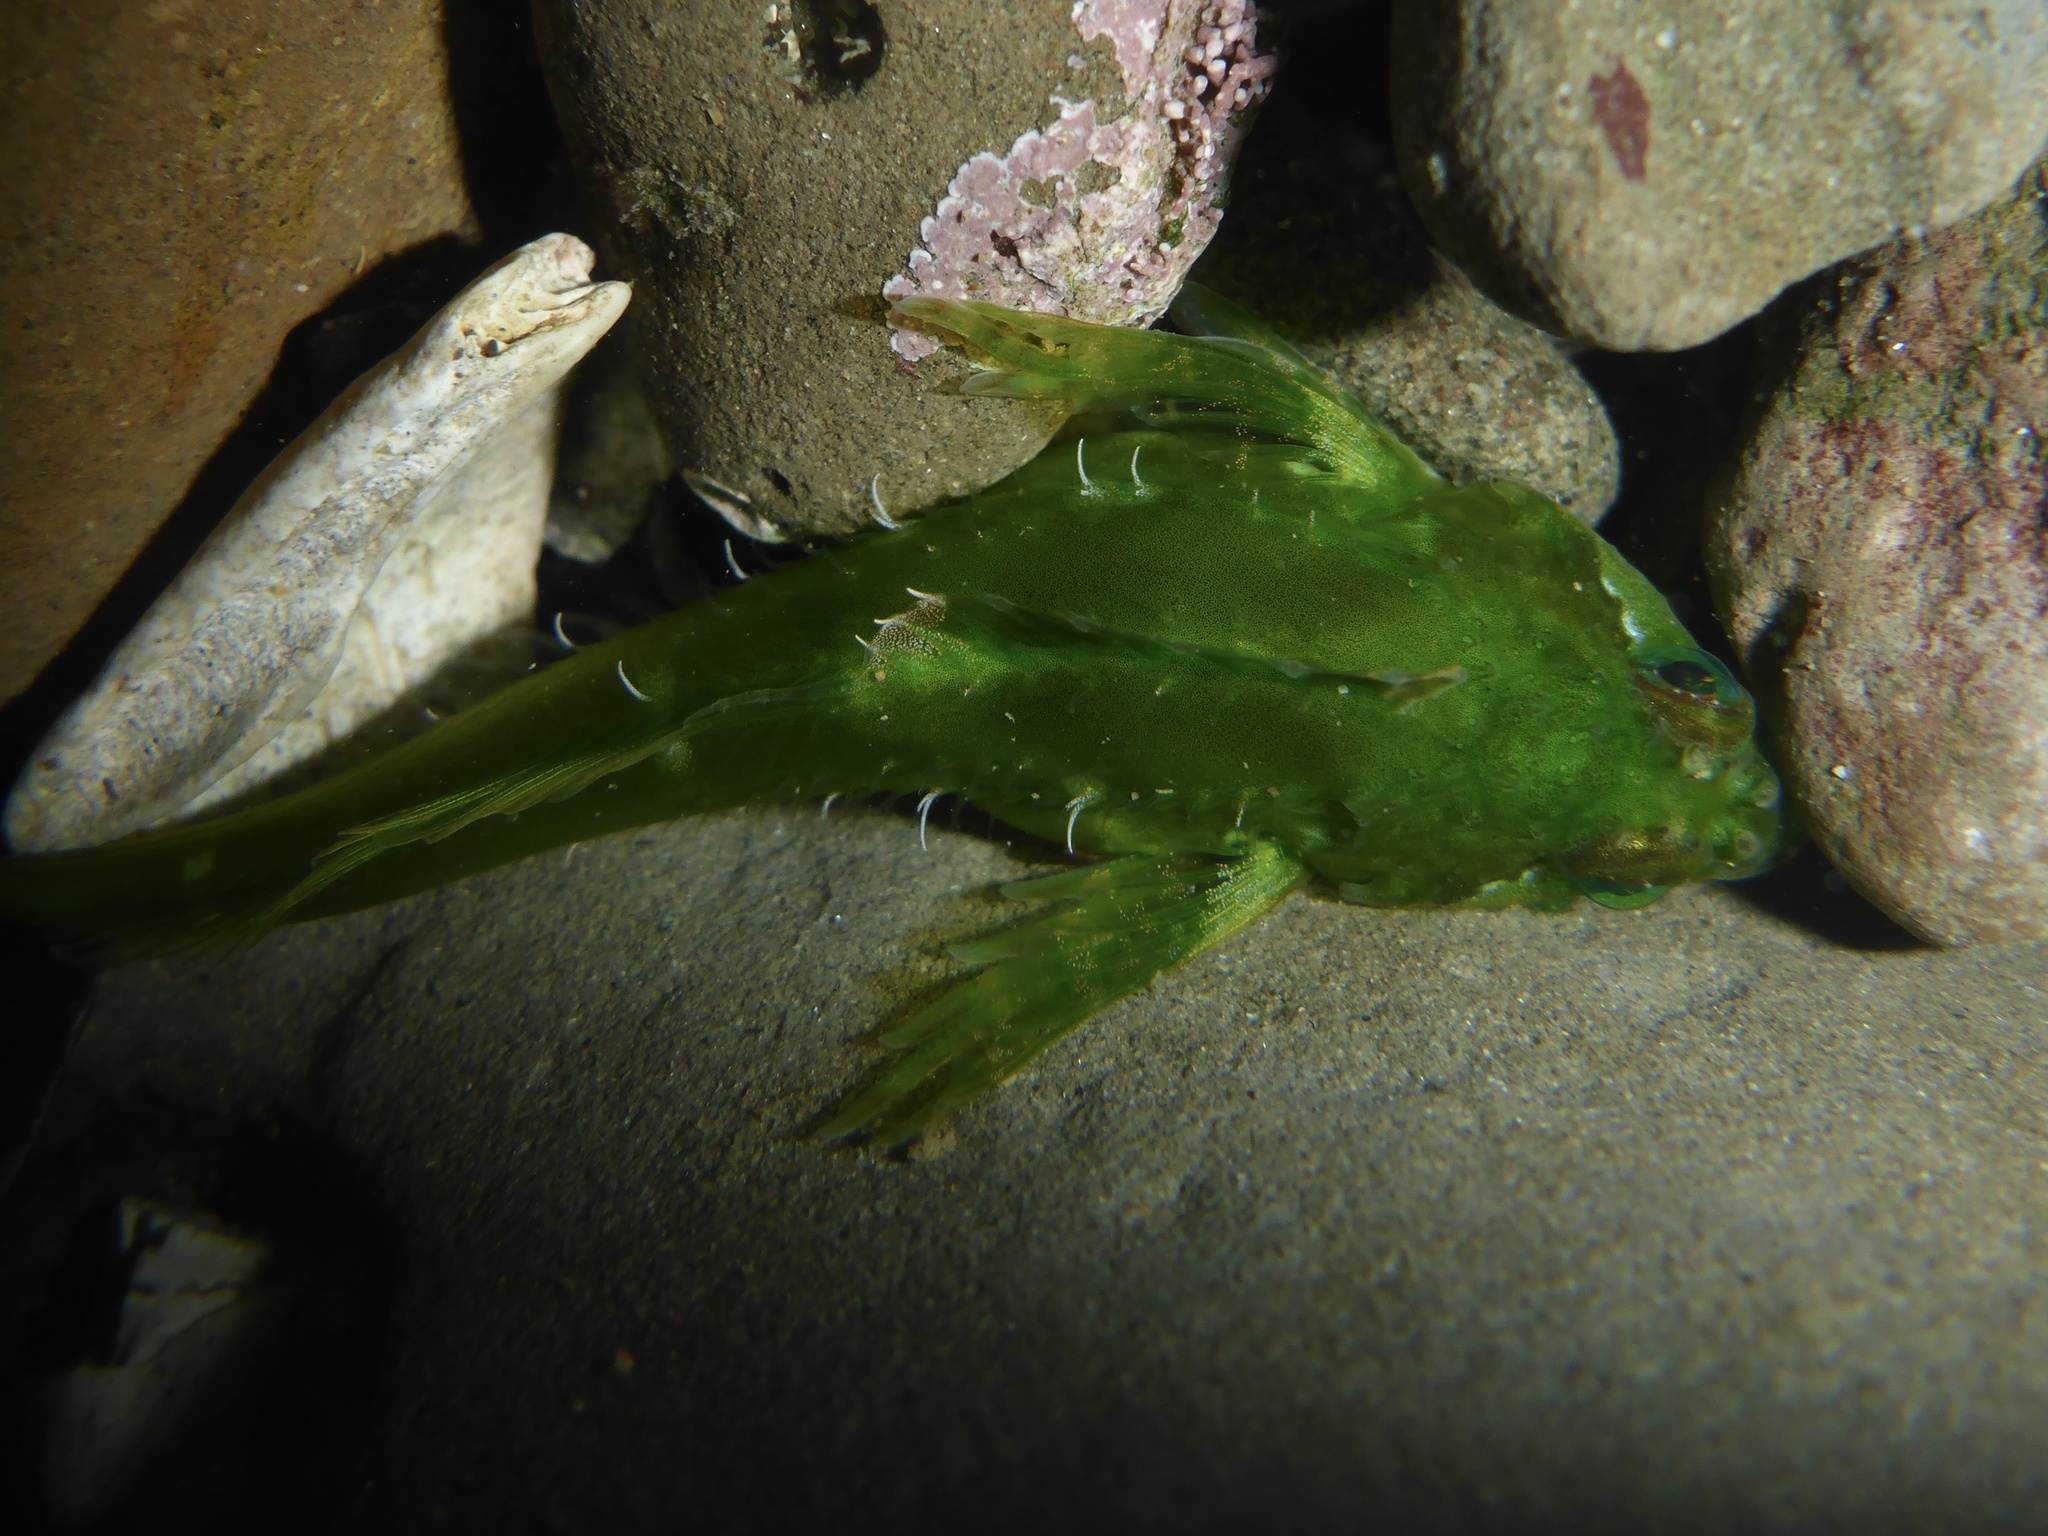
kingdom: Animalia
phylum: Chordata
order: Scorpaeniformes
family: Cottidae
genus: Oligocottus
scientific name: Oligocottus snyderi
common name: Fluffy sculpin
